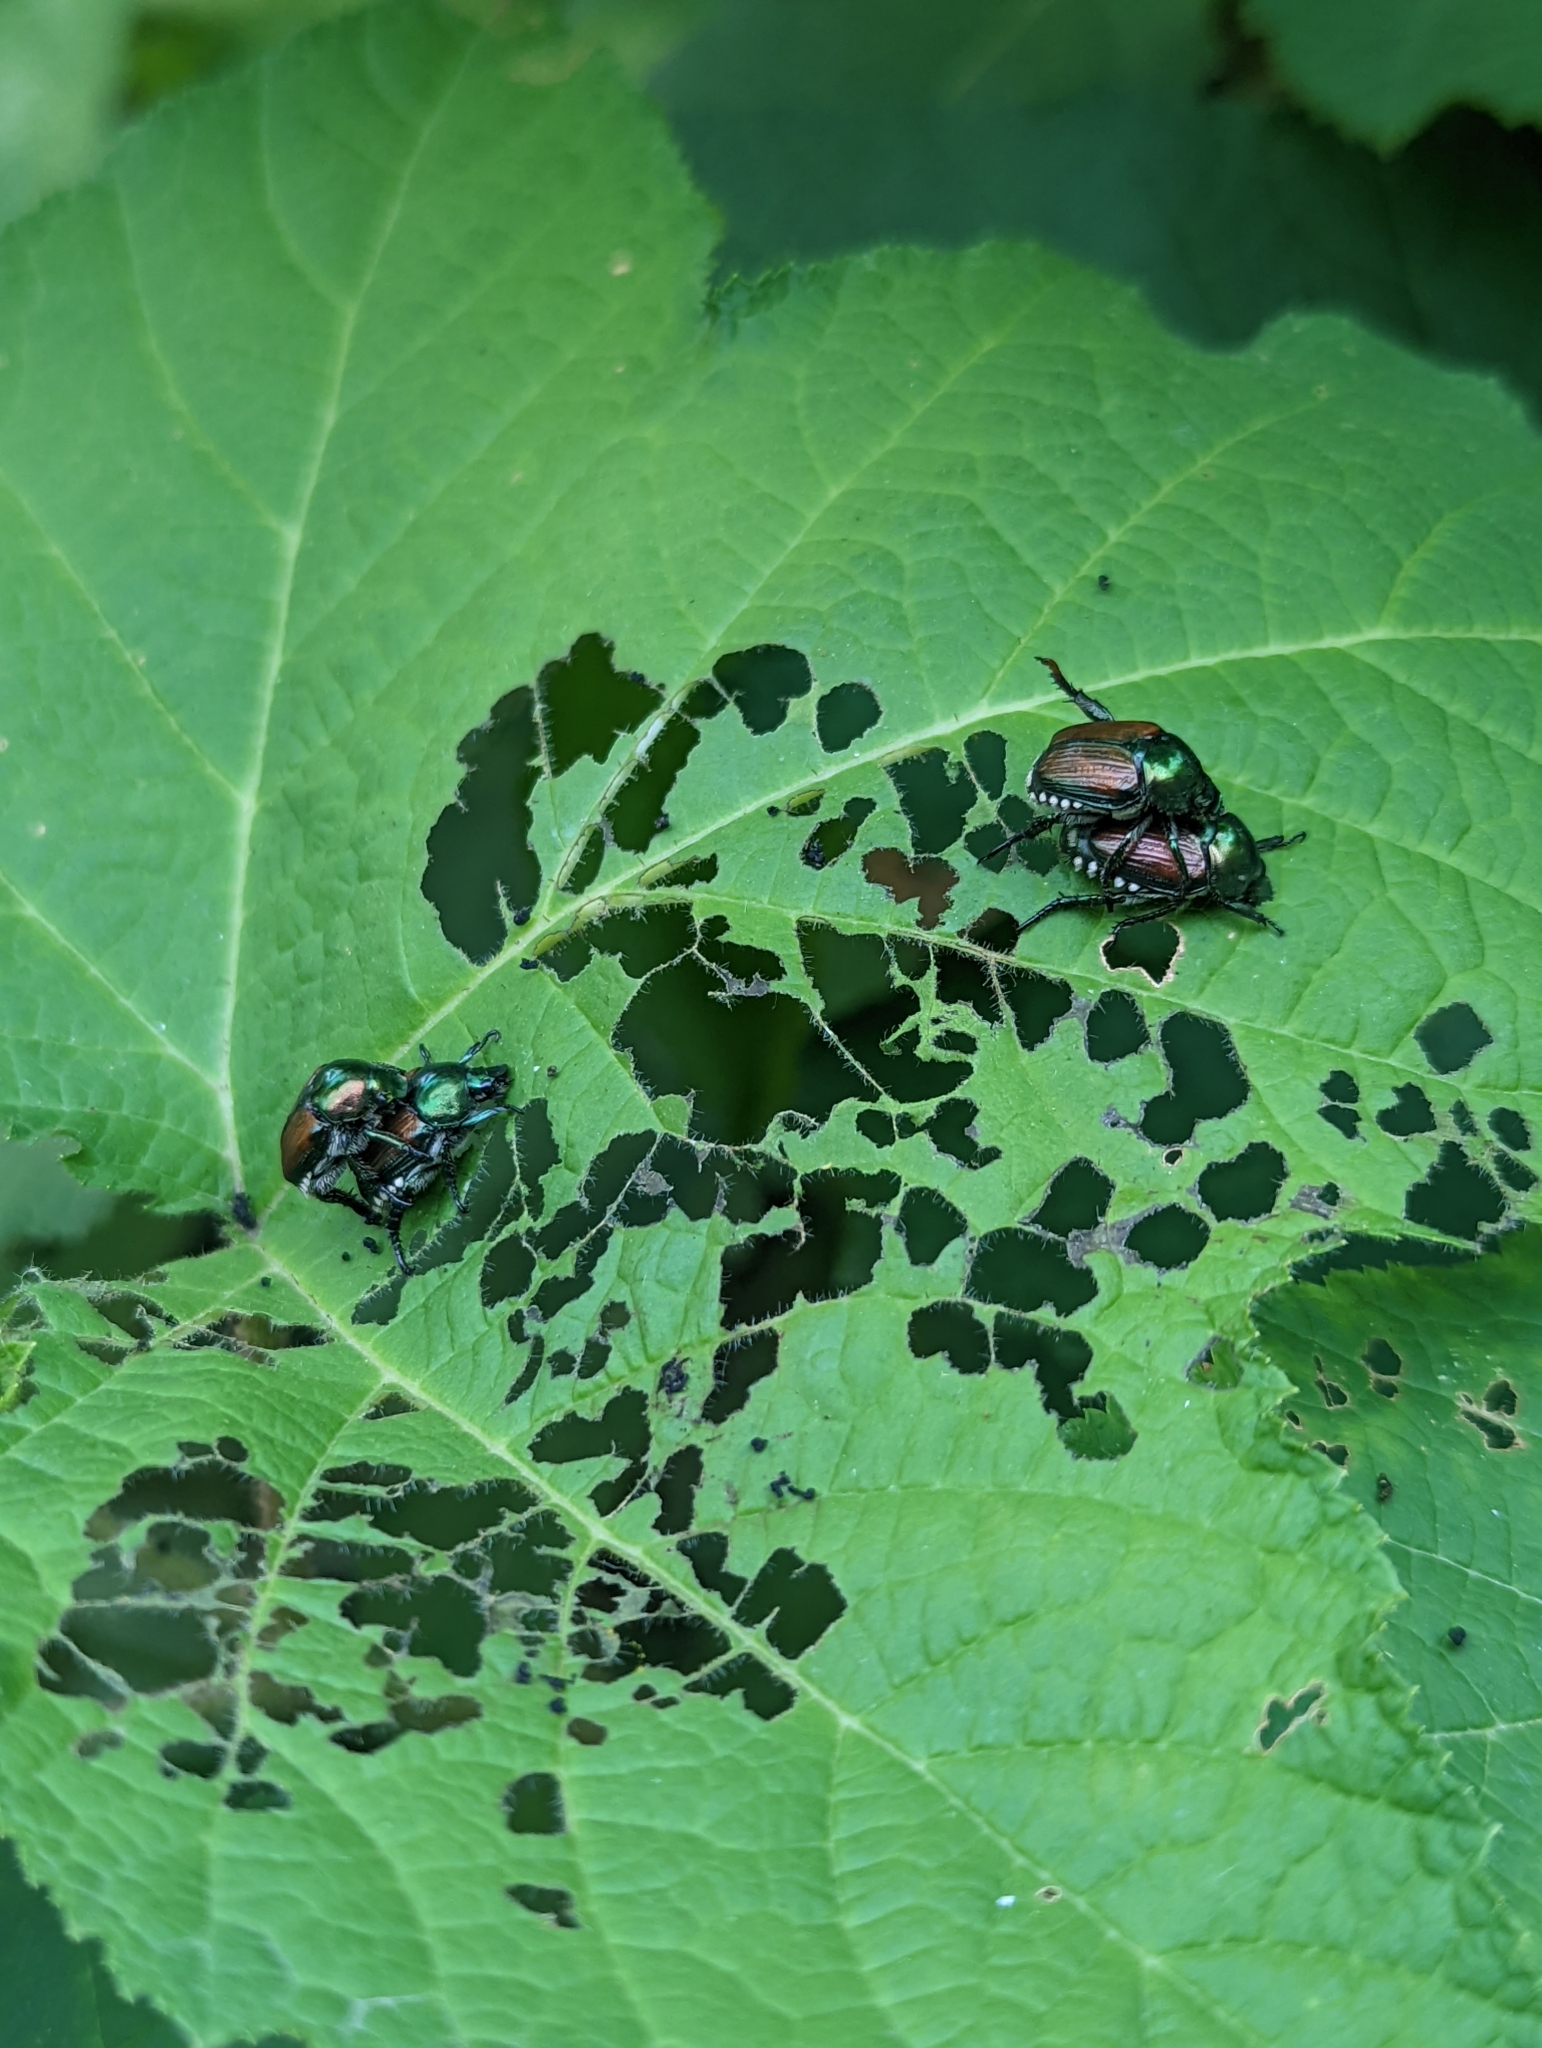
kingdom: Animalia
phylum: Arthropoda
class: Insecta
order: Coleoptera
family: Scarabaeidae
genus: Popillia
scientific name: Popillia japonica
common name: Japanese beetle
